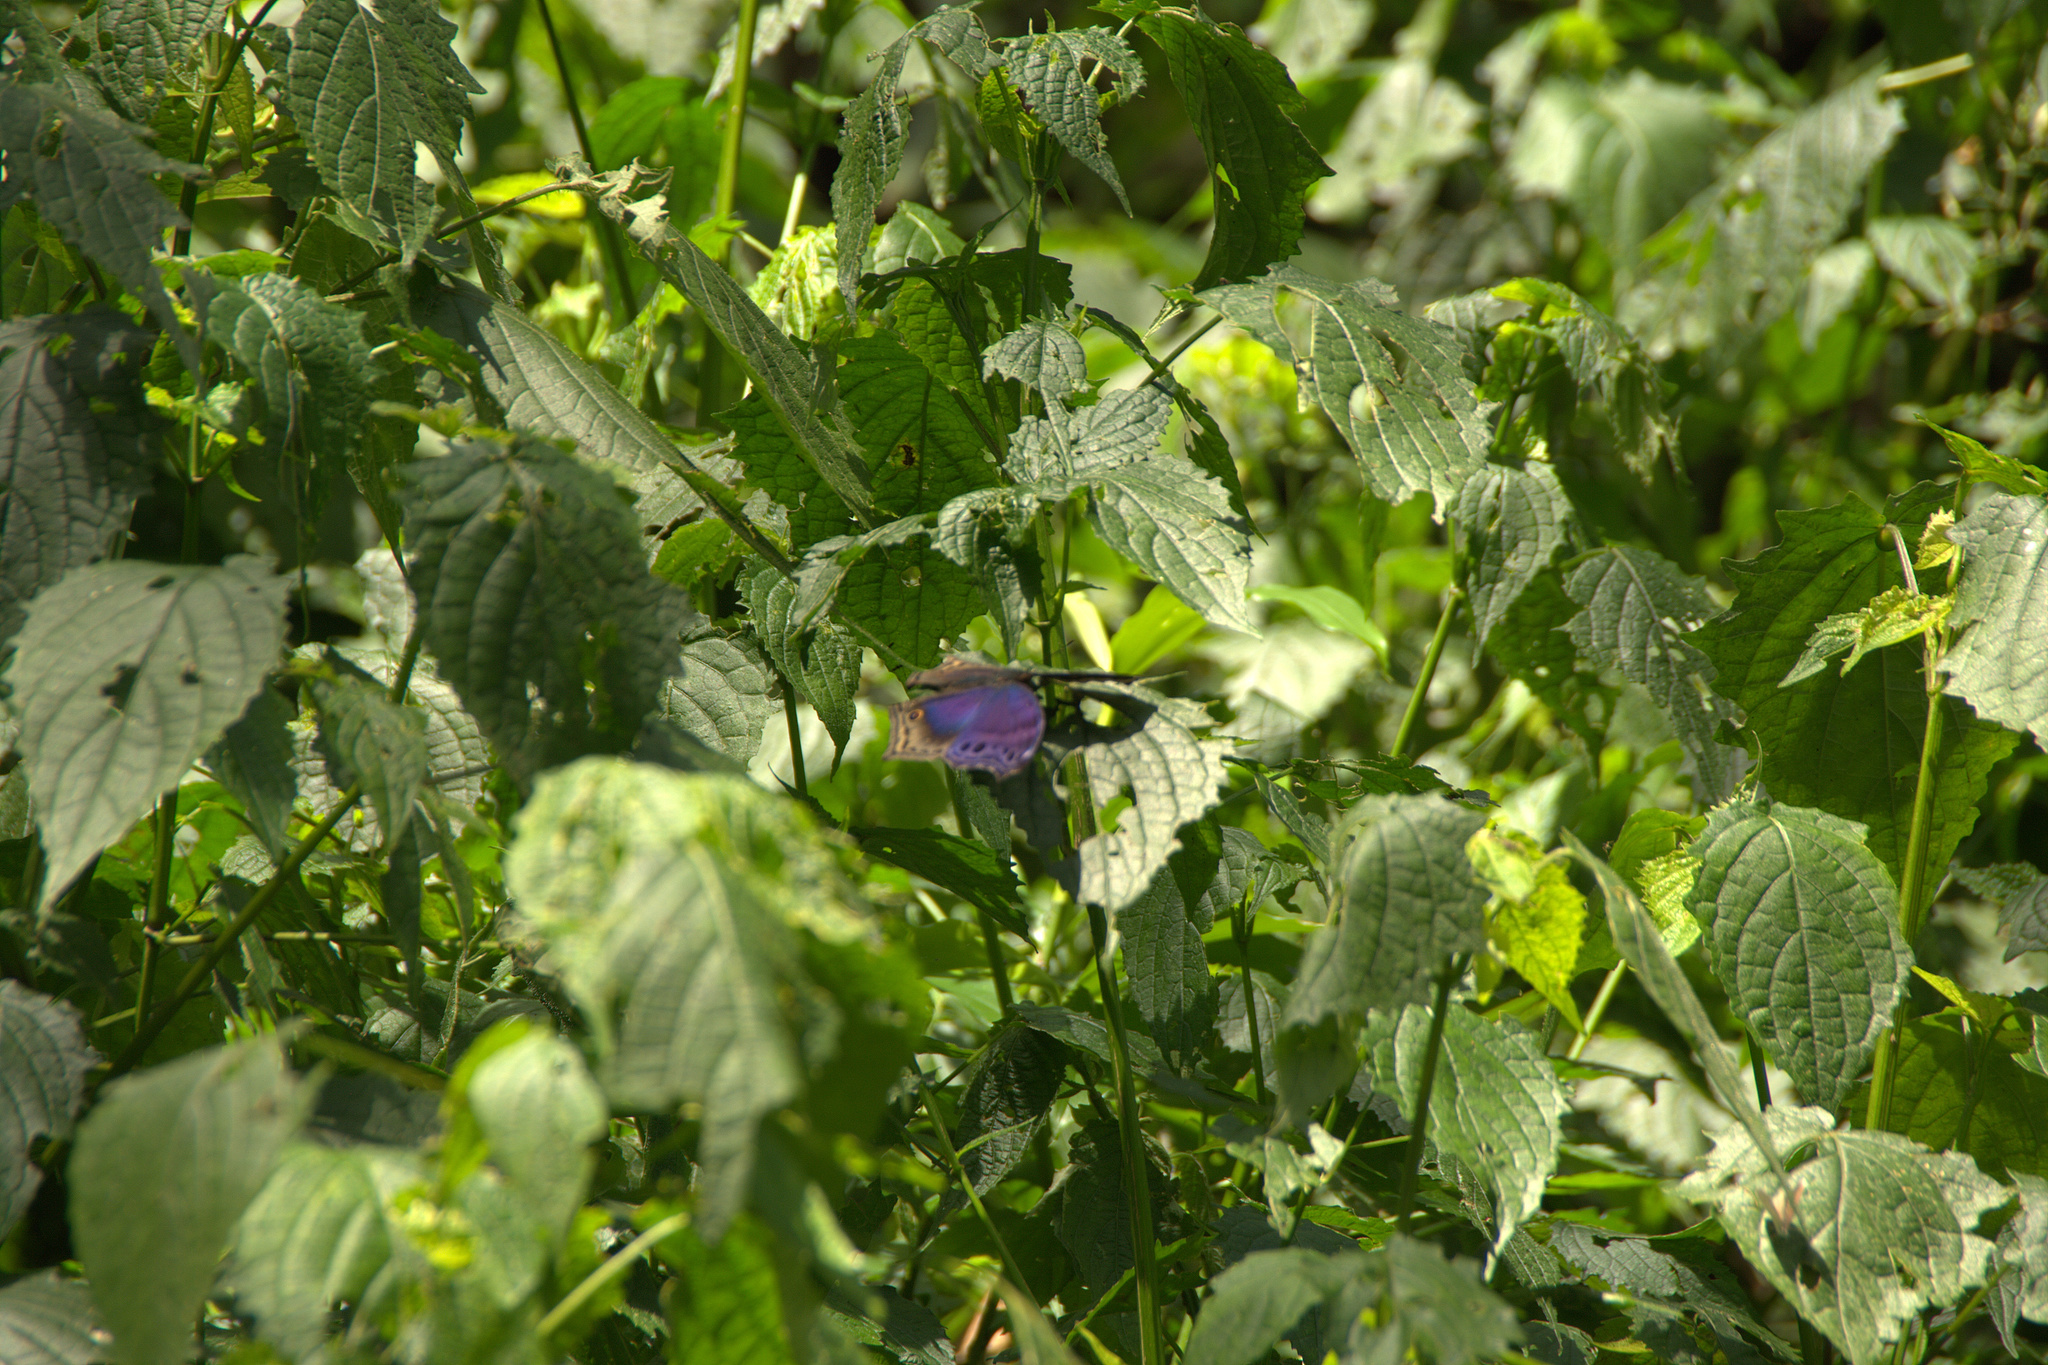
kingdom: Animalia
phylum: Arthropoda
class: Insecta
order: Lepidoptera
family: Nymphalidae
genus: Junonia
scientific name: Junonia
